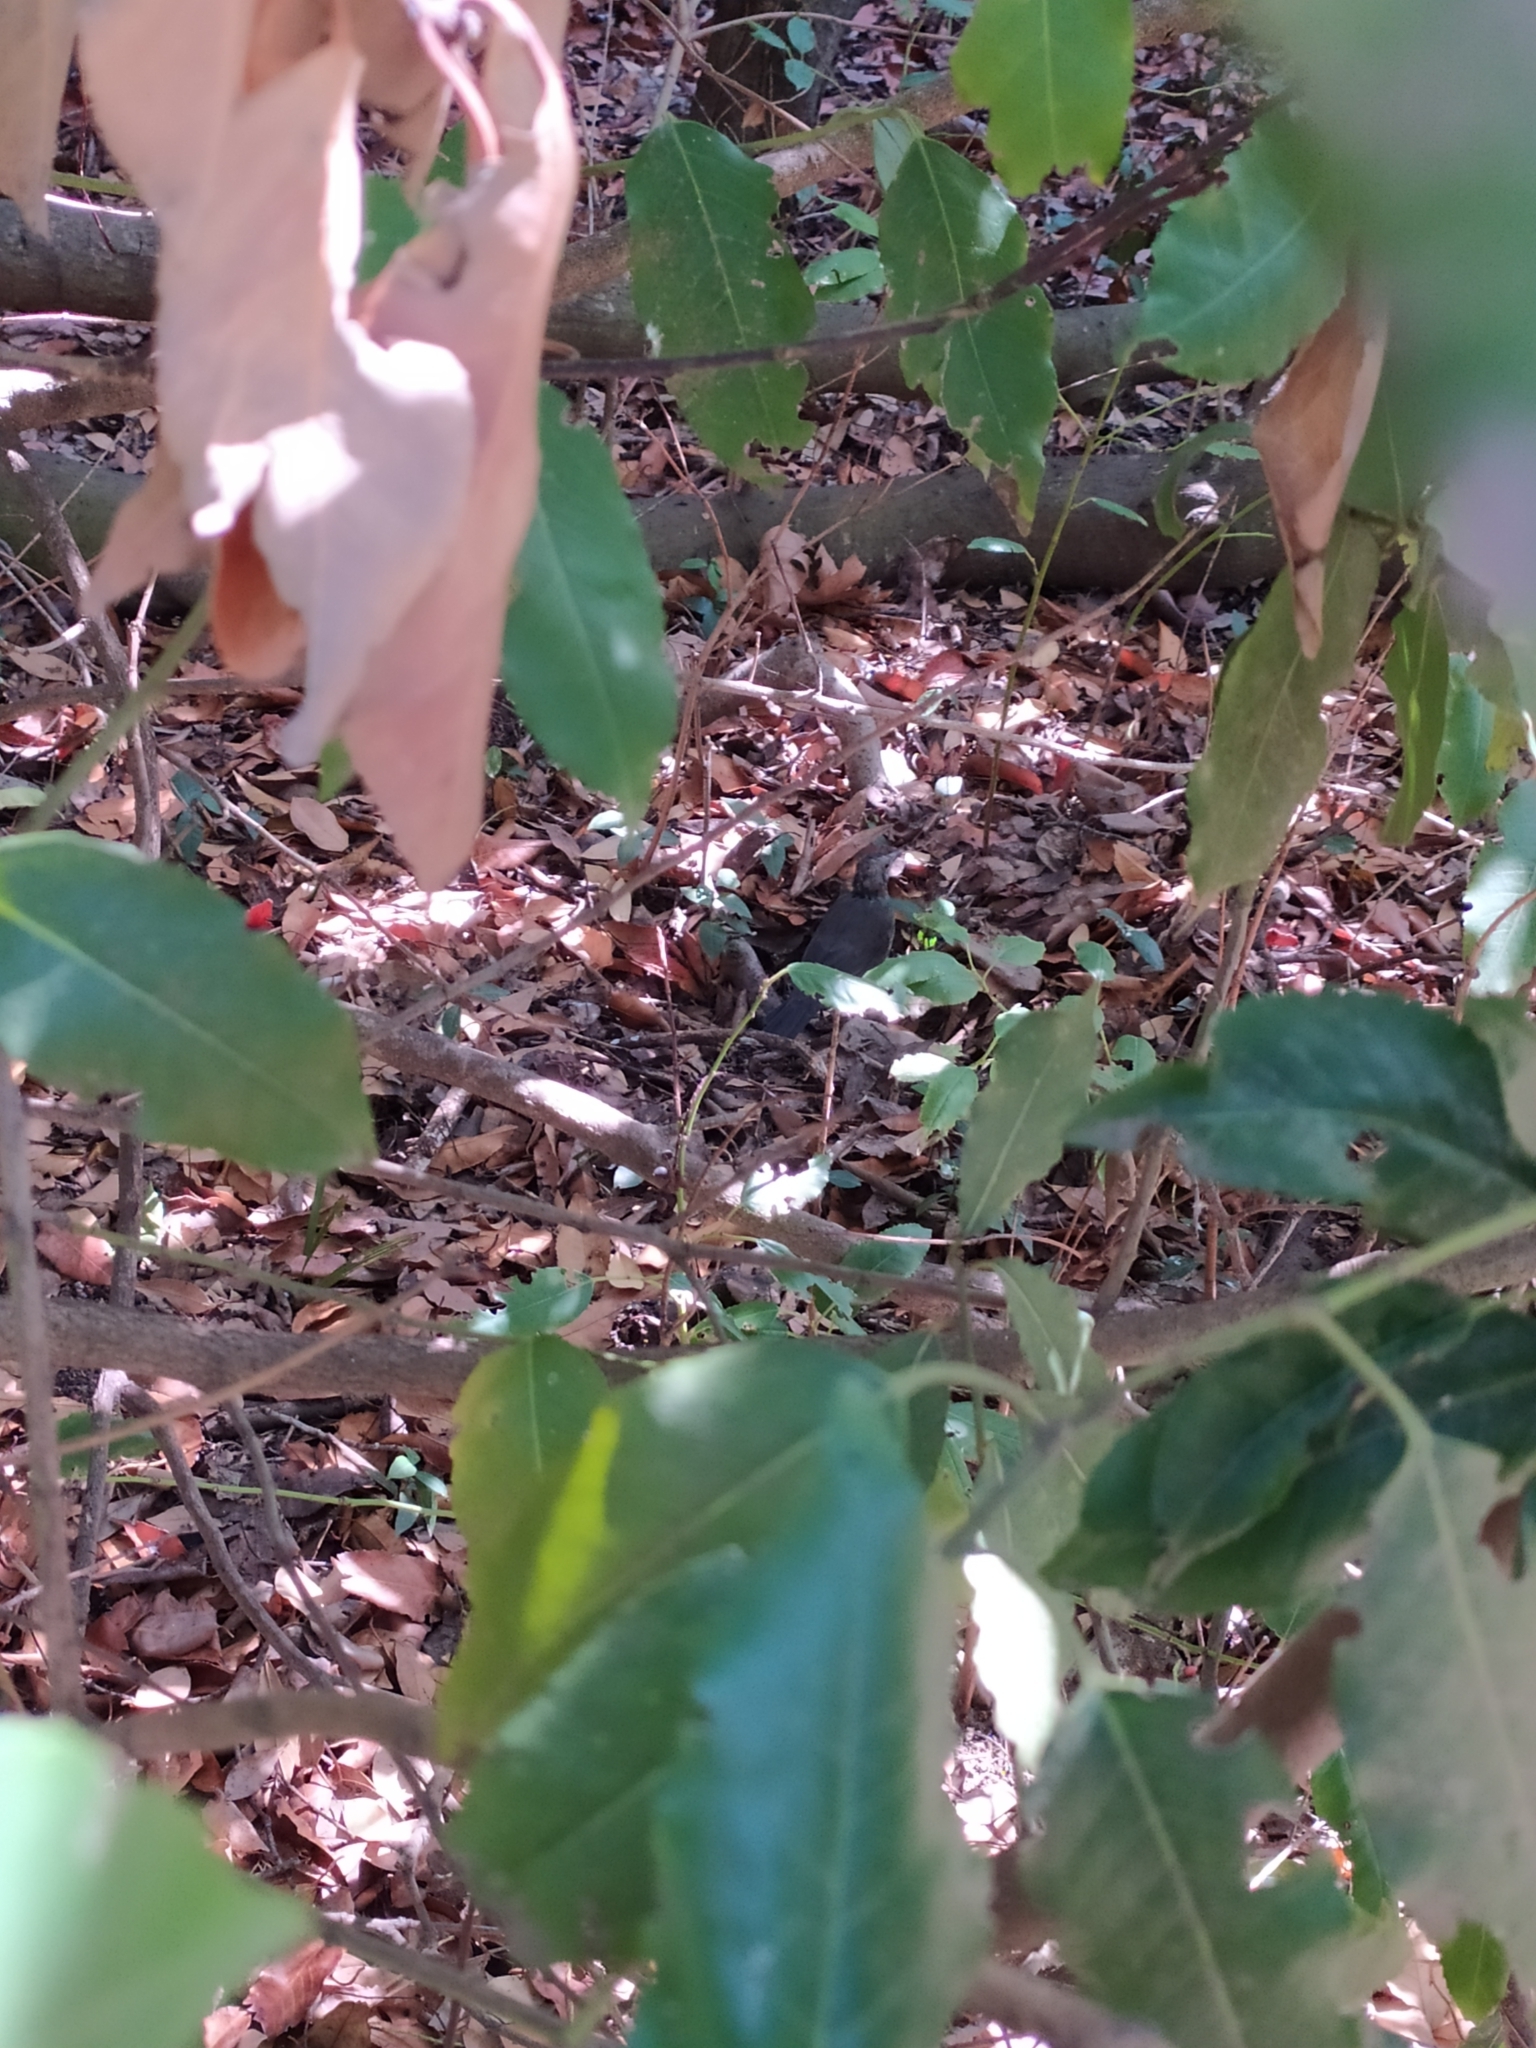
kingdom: Animalia
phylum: Chordata
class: Aves
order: Passeriformes
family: Turdidae
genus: Turdus
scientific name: Turdus merula
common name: Common blackbird
